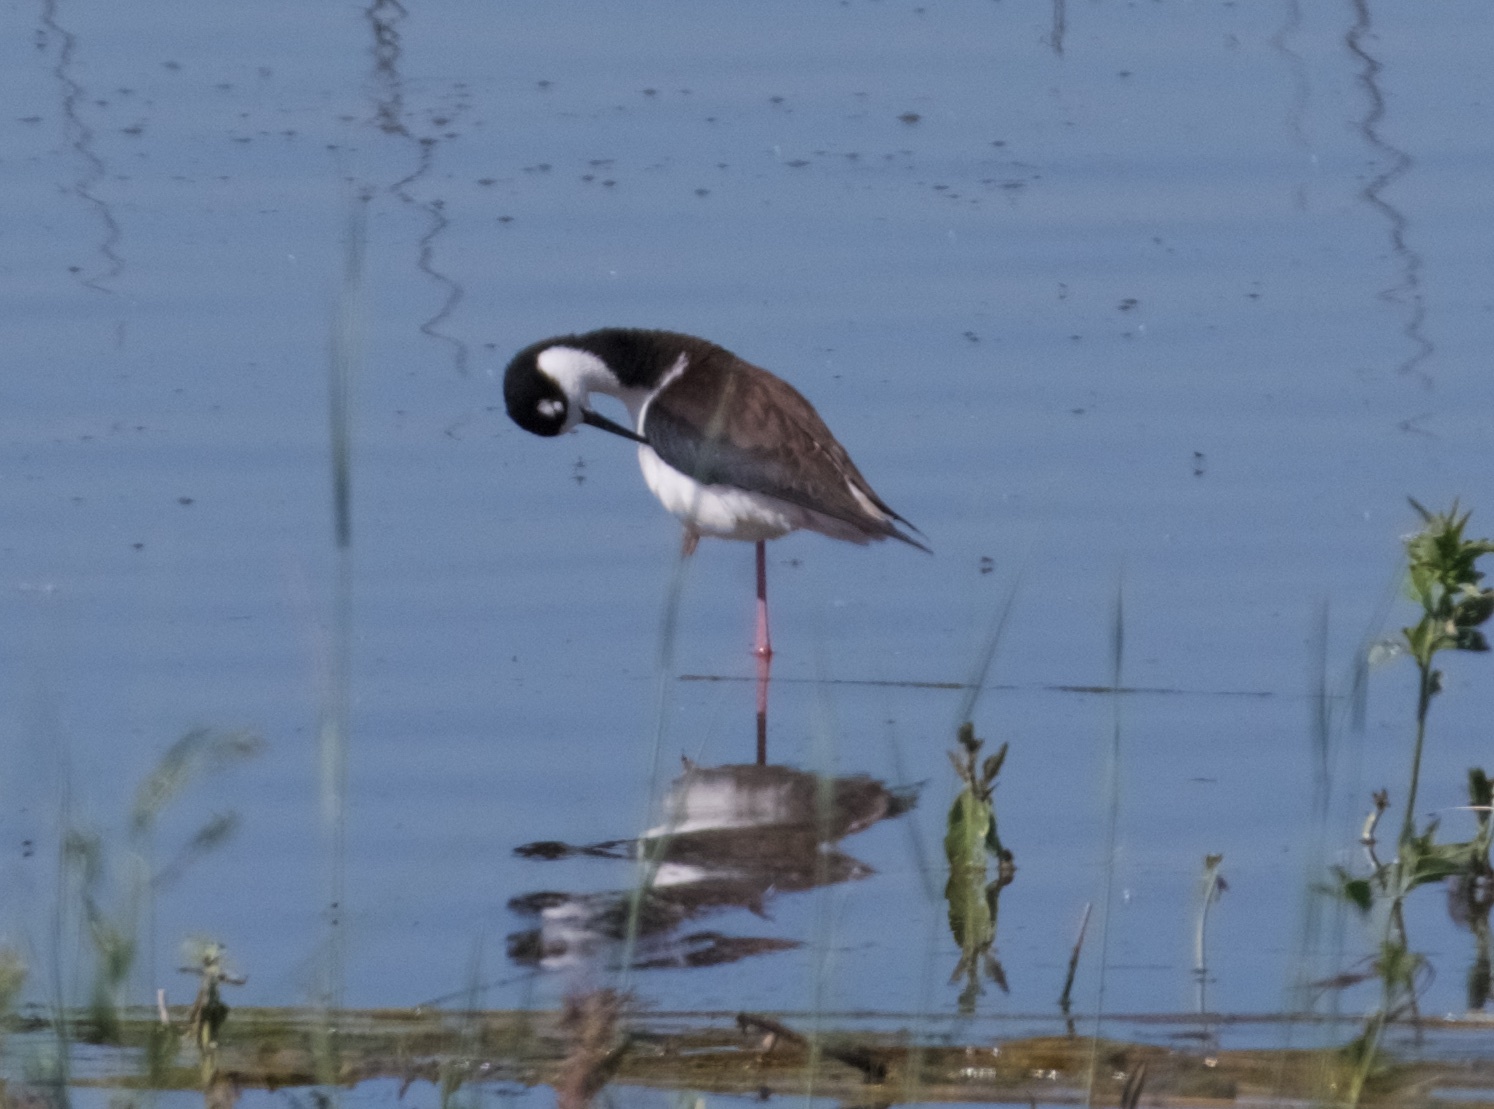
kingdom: Animalia
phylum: Chordata
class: Aves
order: Charadriiformes
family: Recurvirostridae
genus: Himantopus
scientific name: Himantopus mexicanus
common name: Black-necked stilt
